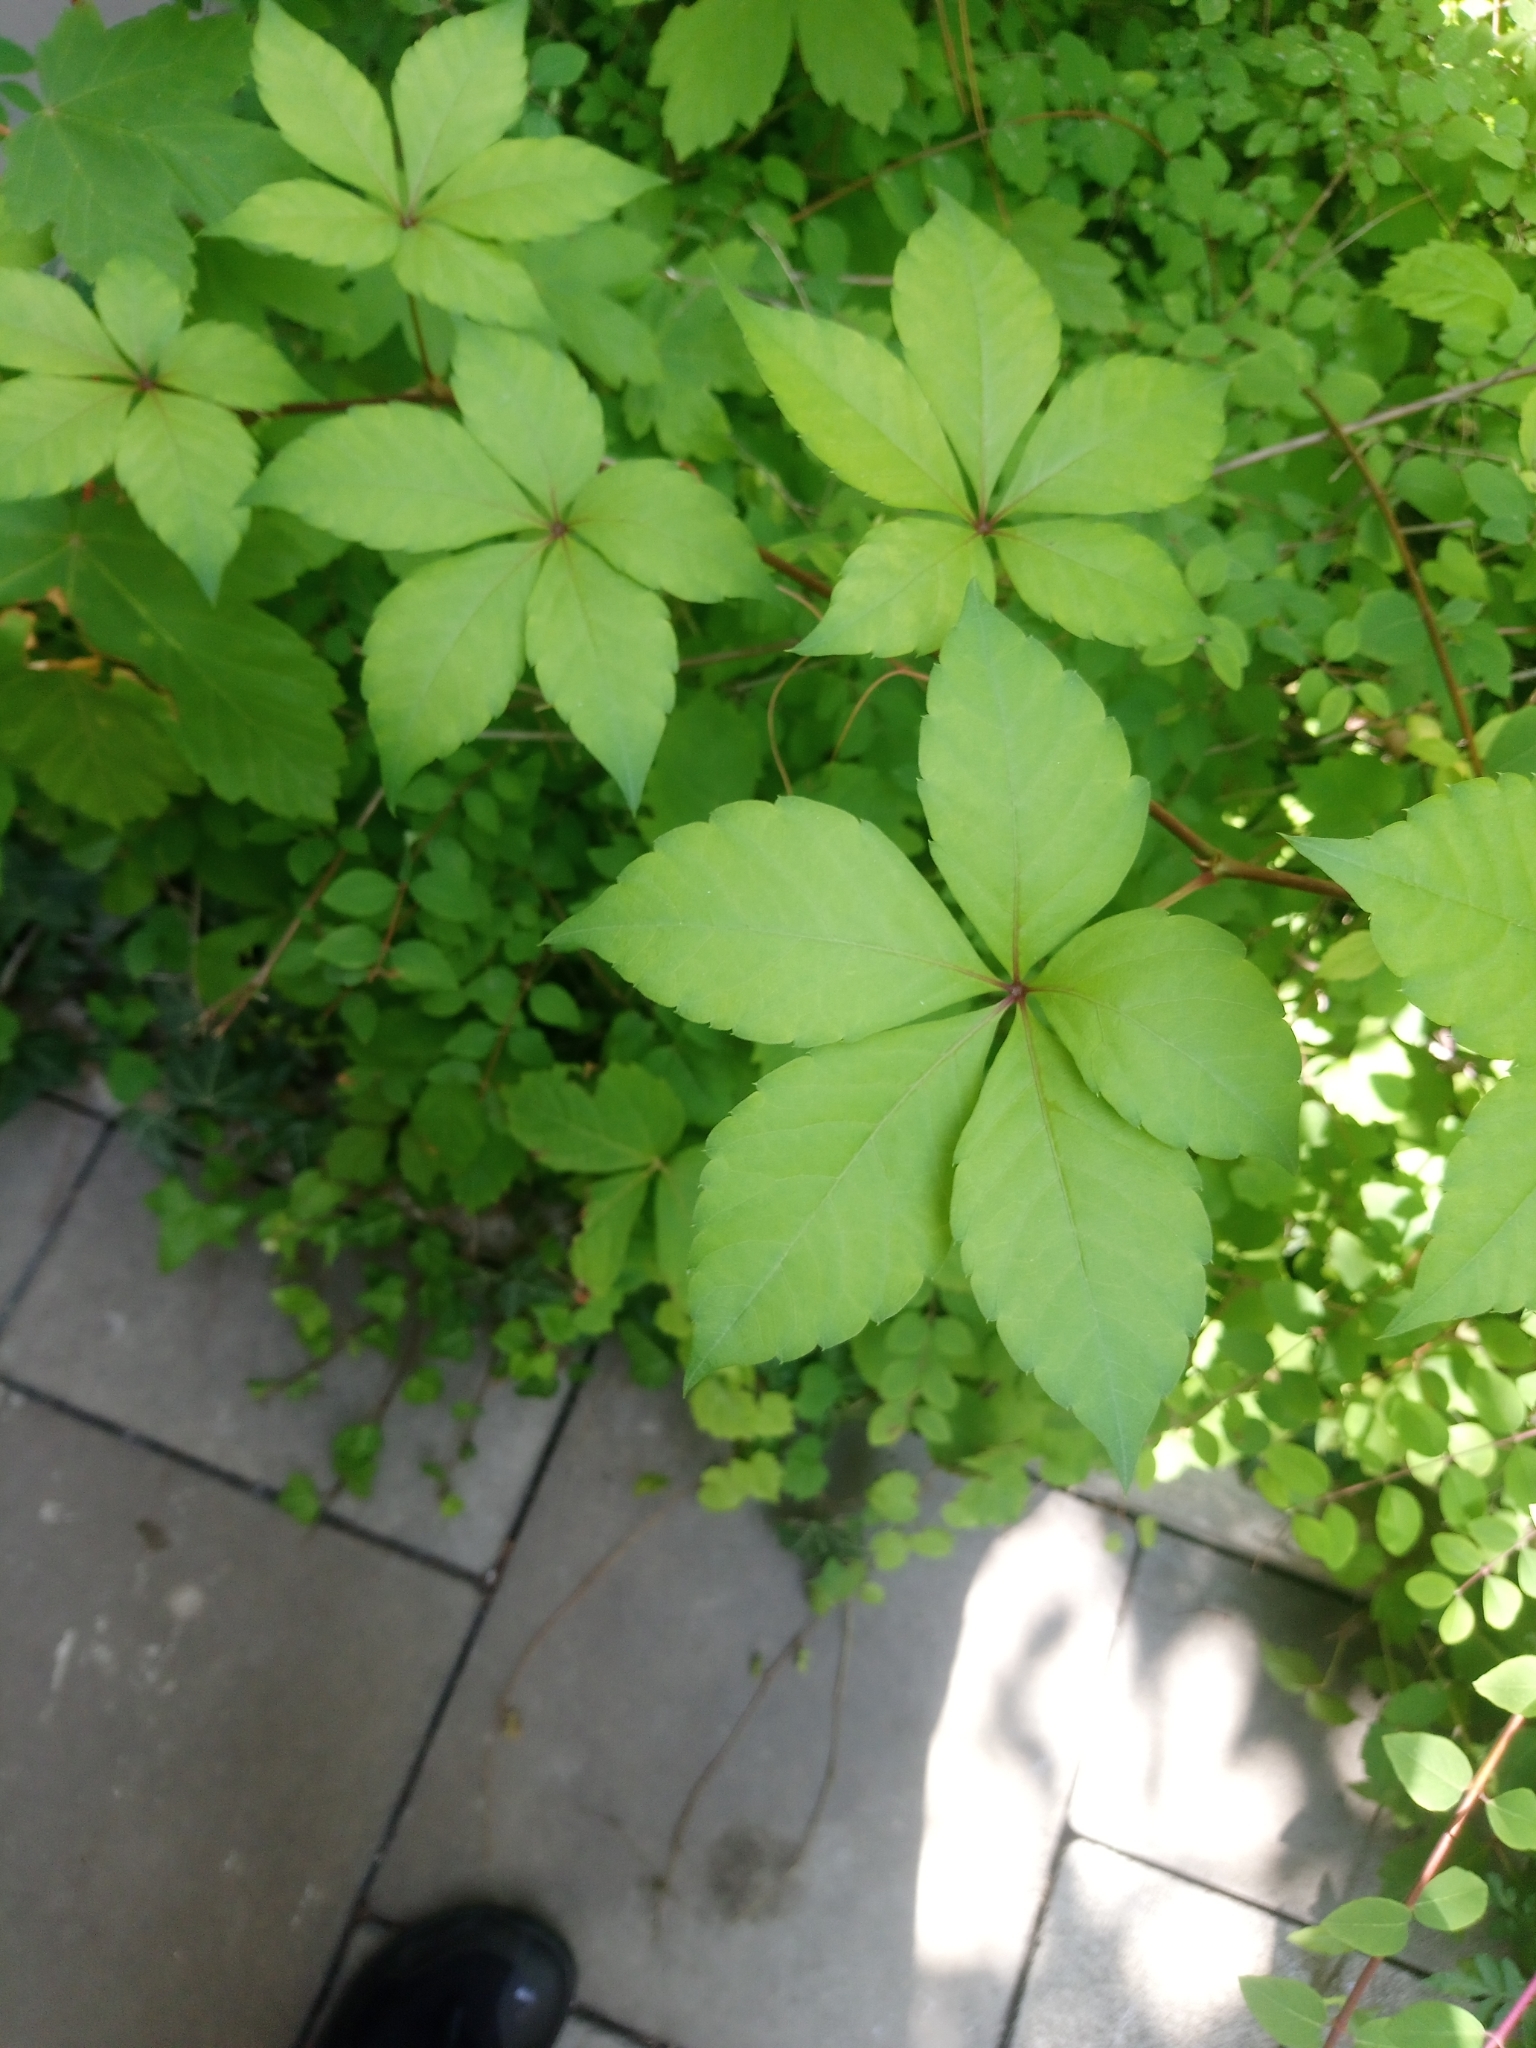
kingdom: Plantae
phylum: Tracheophyta
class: Magnoliopsida
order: Vitales
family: Vitaceae
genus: Parthenocissus
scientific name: Parthenocissus quinquefolia
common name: Virginia-creeper
